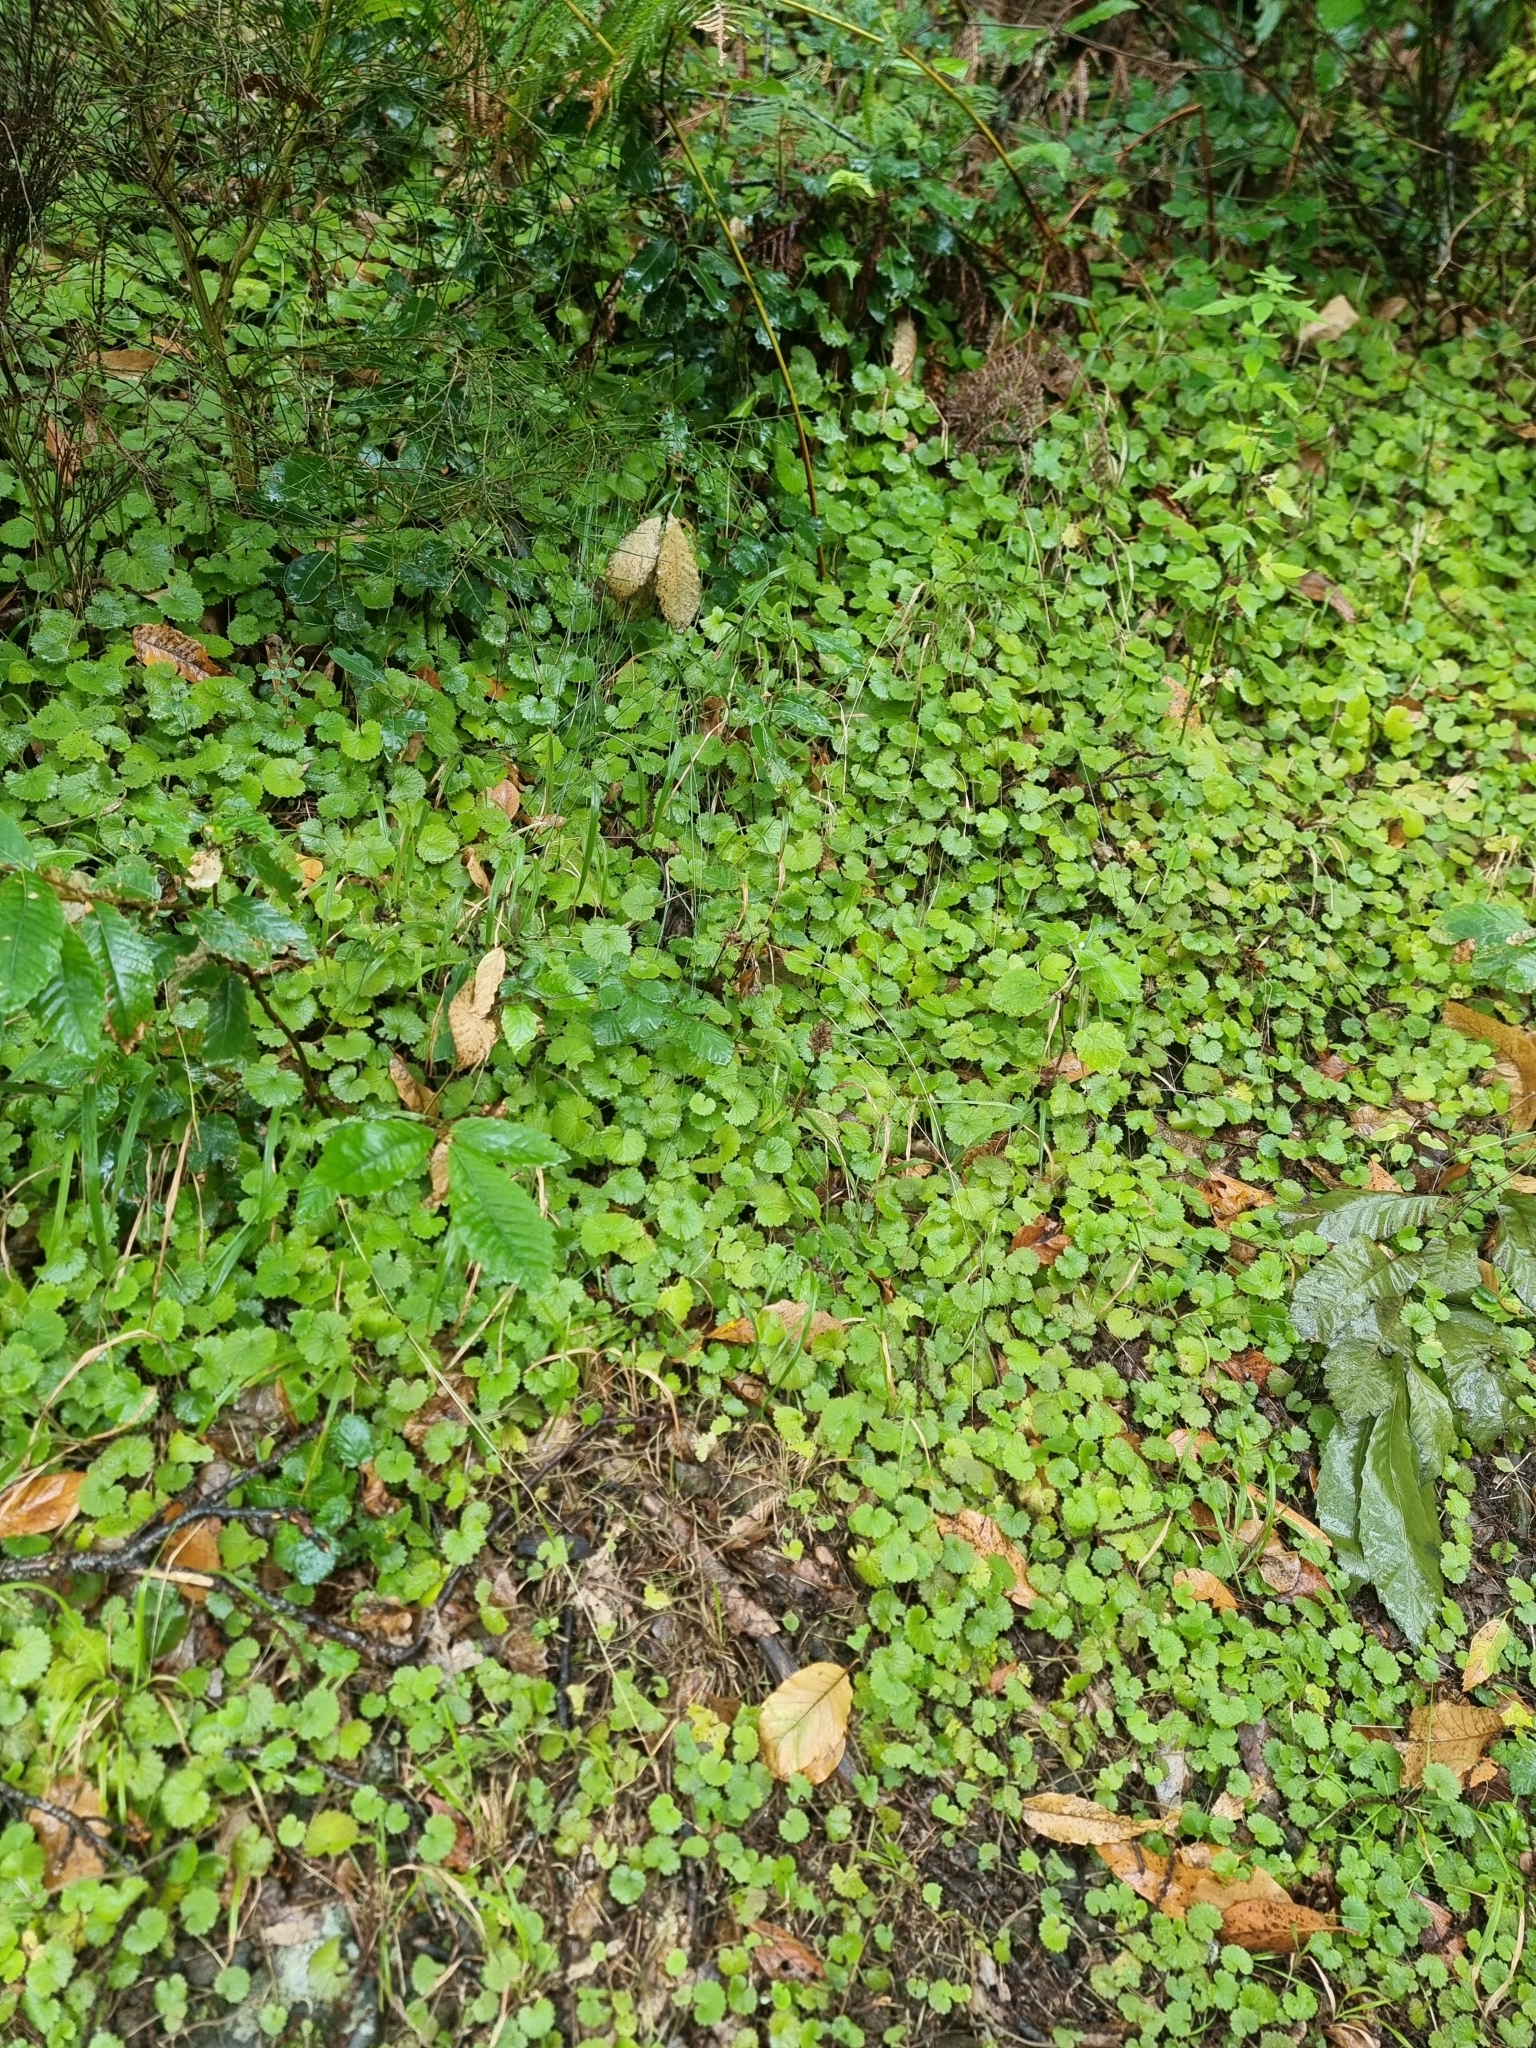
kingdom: Plantae
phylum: Tracheophyta
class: Magnoliopsida
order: Lamiales
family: Plantaginaceae
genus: Sibthorpia
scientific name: Sibthorpia peregrina
